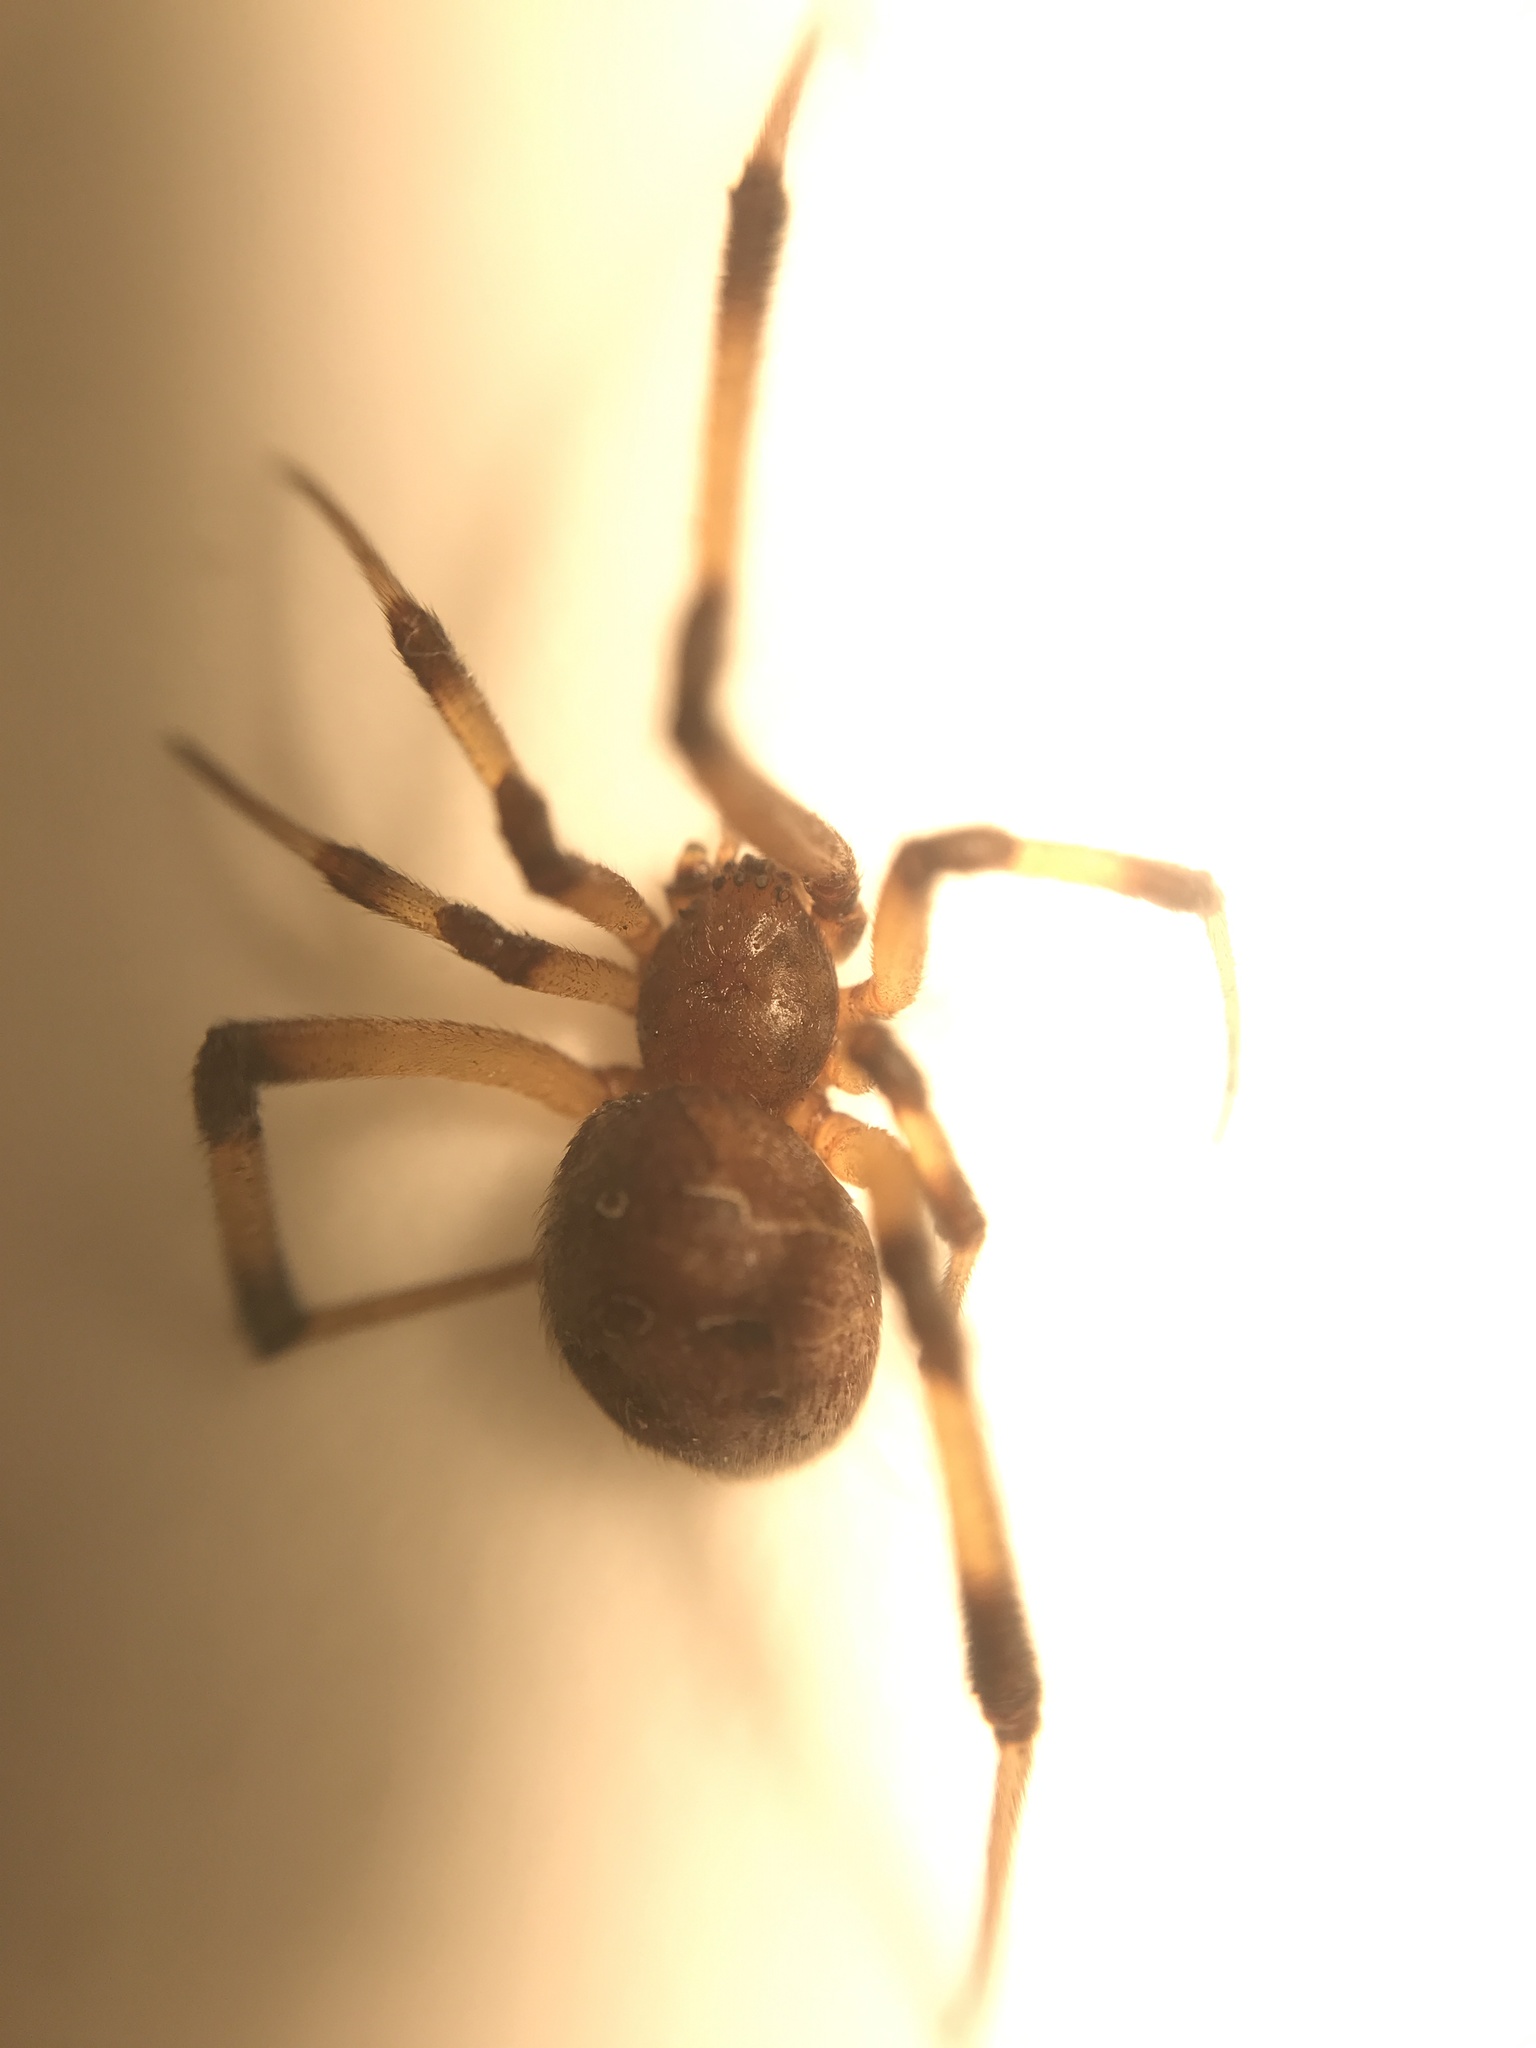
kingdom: Animalia
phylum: Arthropoda
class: Arachnida
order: Araneae
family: Theridiidae
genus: Latrodectus
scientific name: Latrodectus geometricus
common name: Brown widow spider
